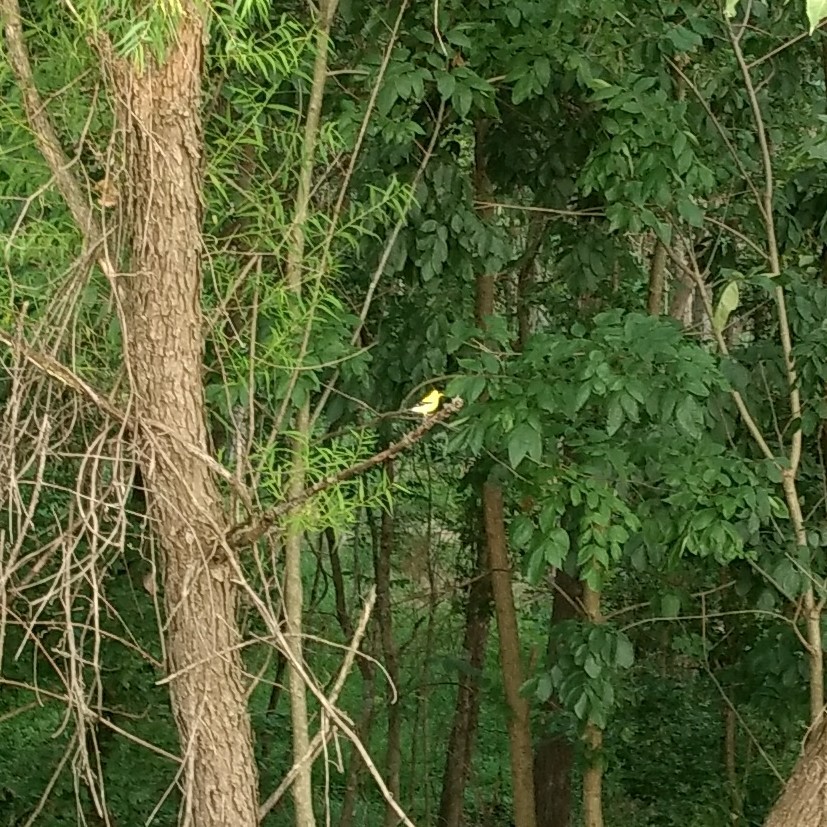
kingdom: Animalia
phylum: Chordata
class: Aves
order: Passeriformes
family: Fringillidae
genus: Spinus
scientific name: Spinus tristis
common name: American goldfinch
